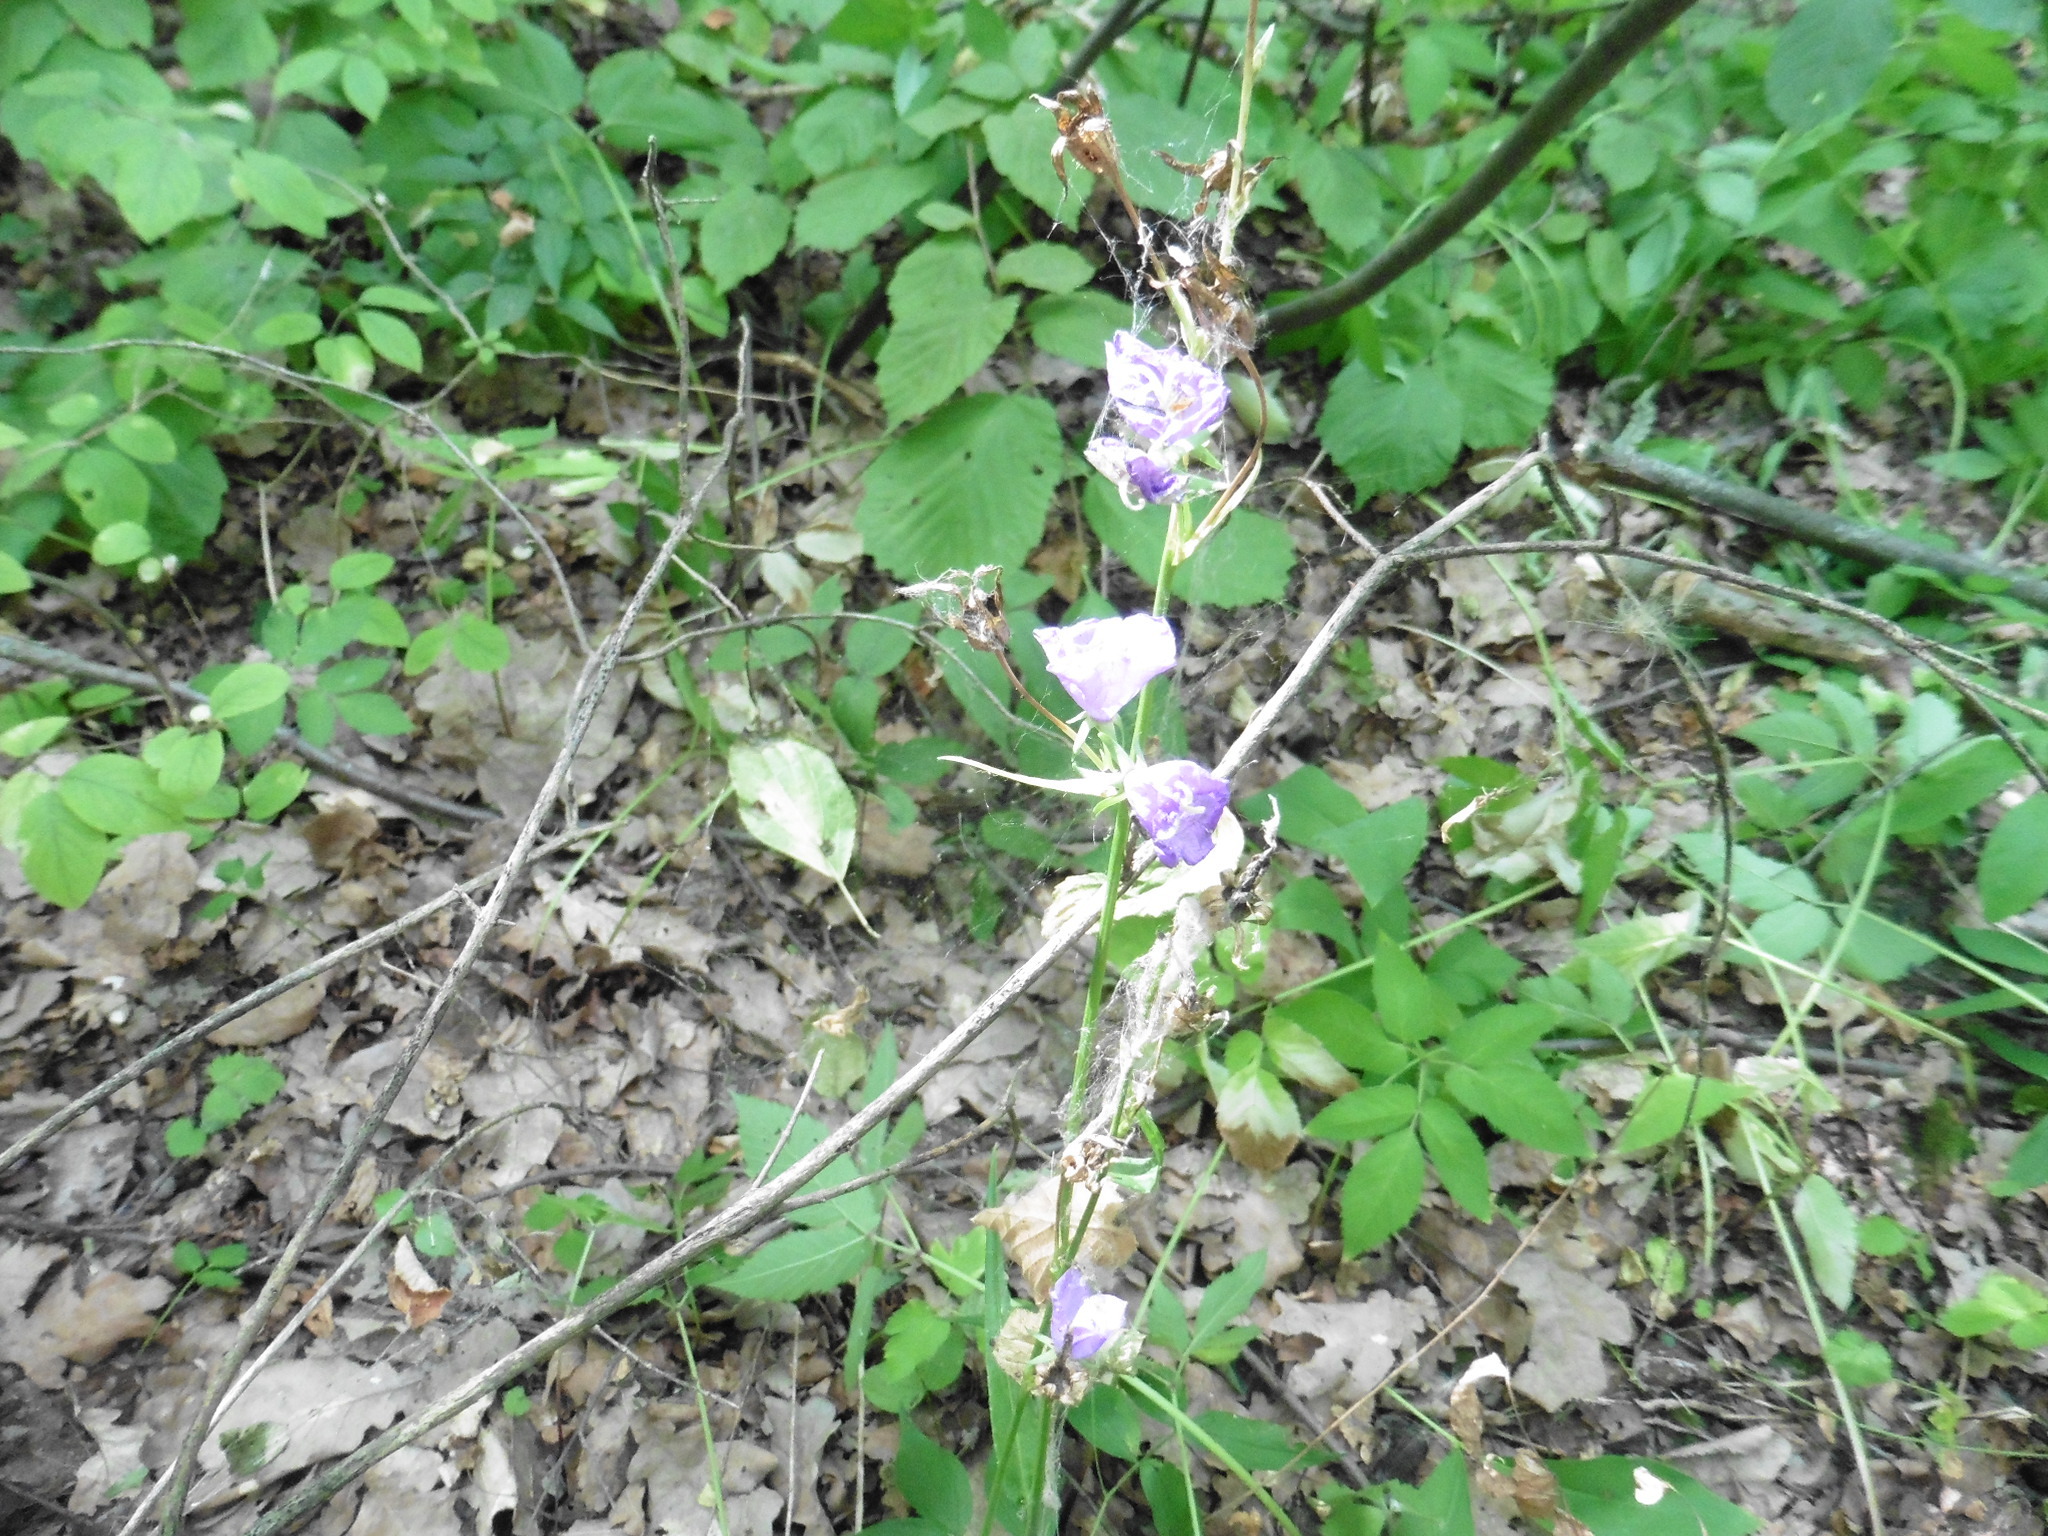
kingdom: Plantae
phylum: Tracheophyta
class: Magnoliopsida
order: Asterales
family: Campanulaceae
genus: Campanula
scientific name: Campanula persicifolia
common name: Peach-leaved bellflower
